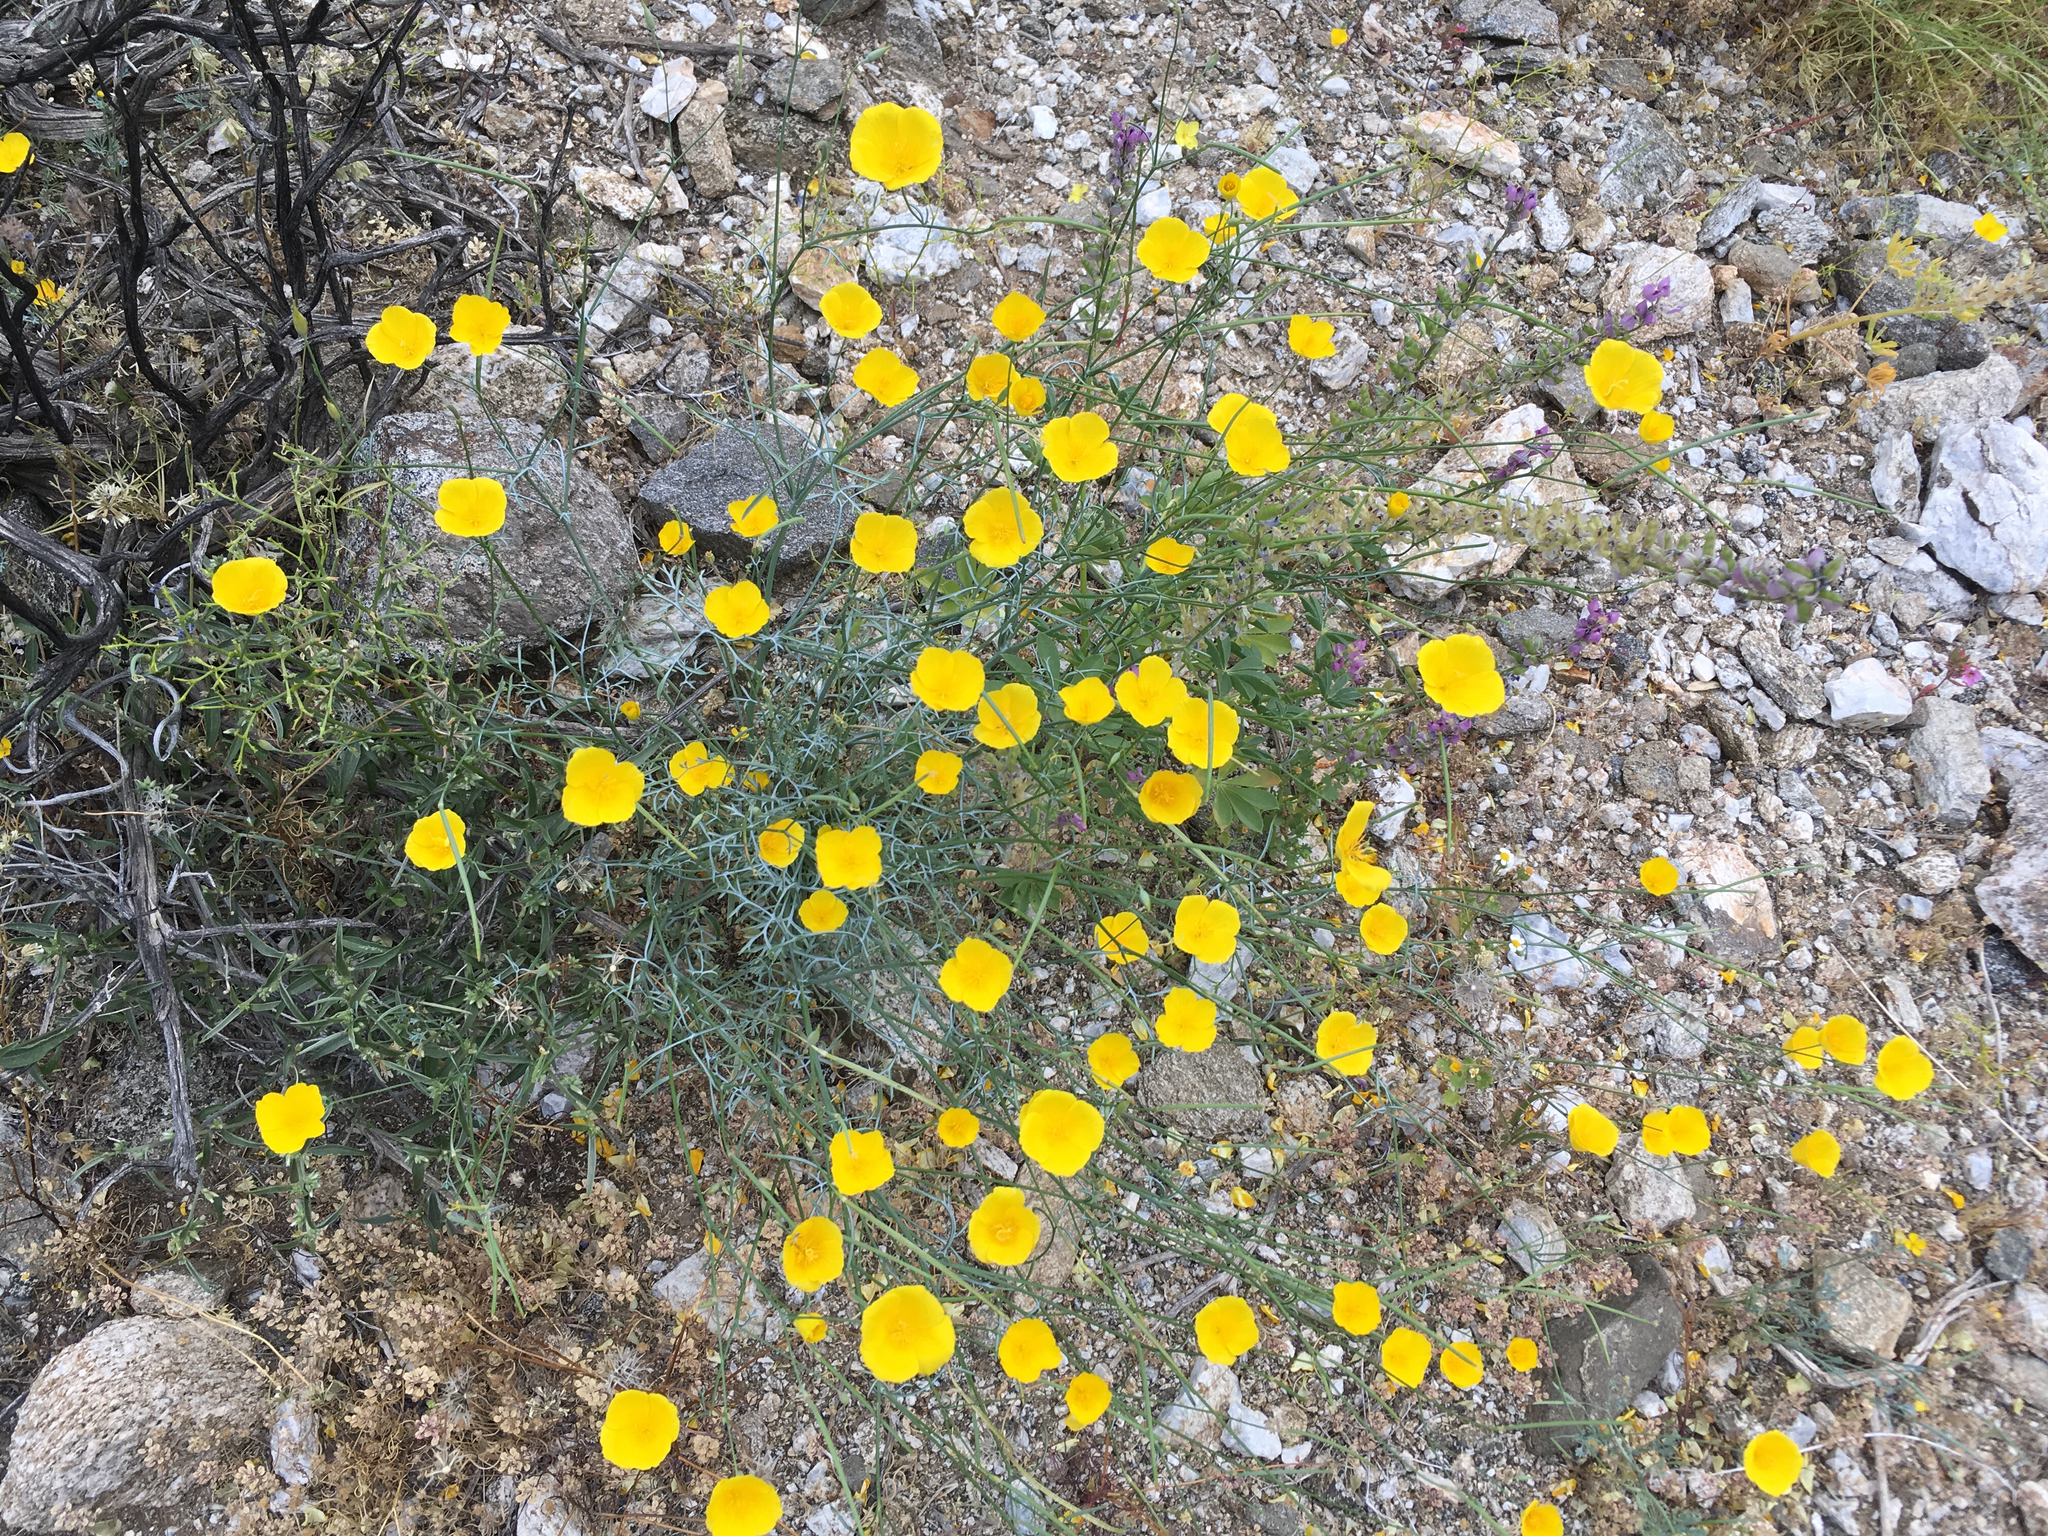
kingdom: Plantae
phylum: Tracheophyta
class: Magnoliopsida
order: Ranunculales
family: Papaveraceae
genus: Eschscholzia
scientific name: Eschscholzia parishii
